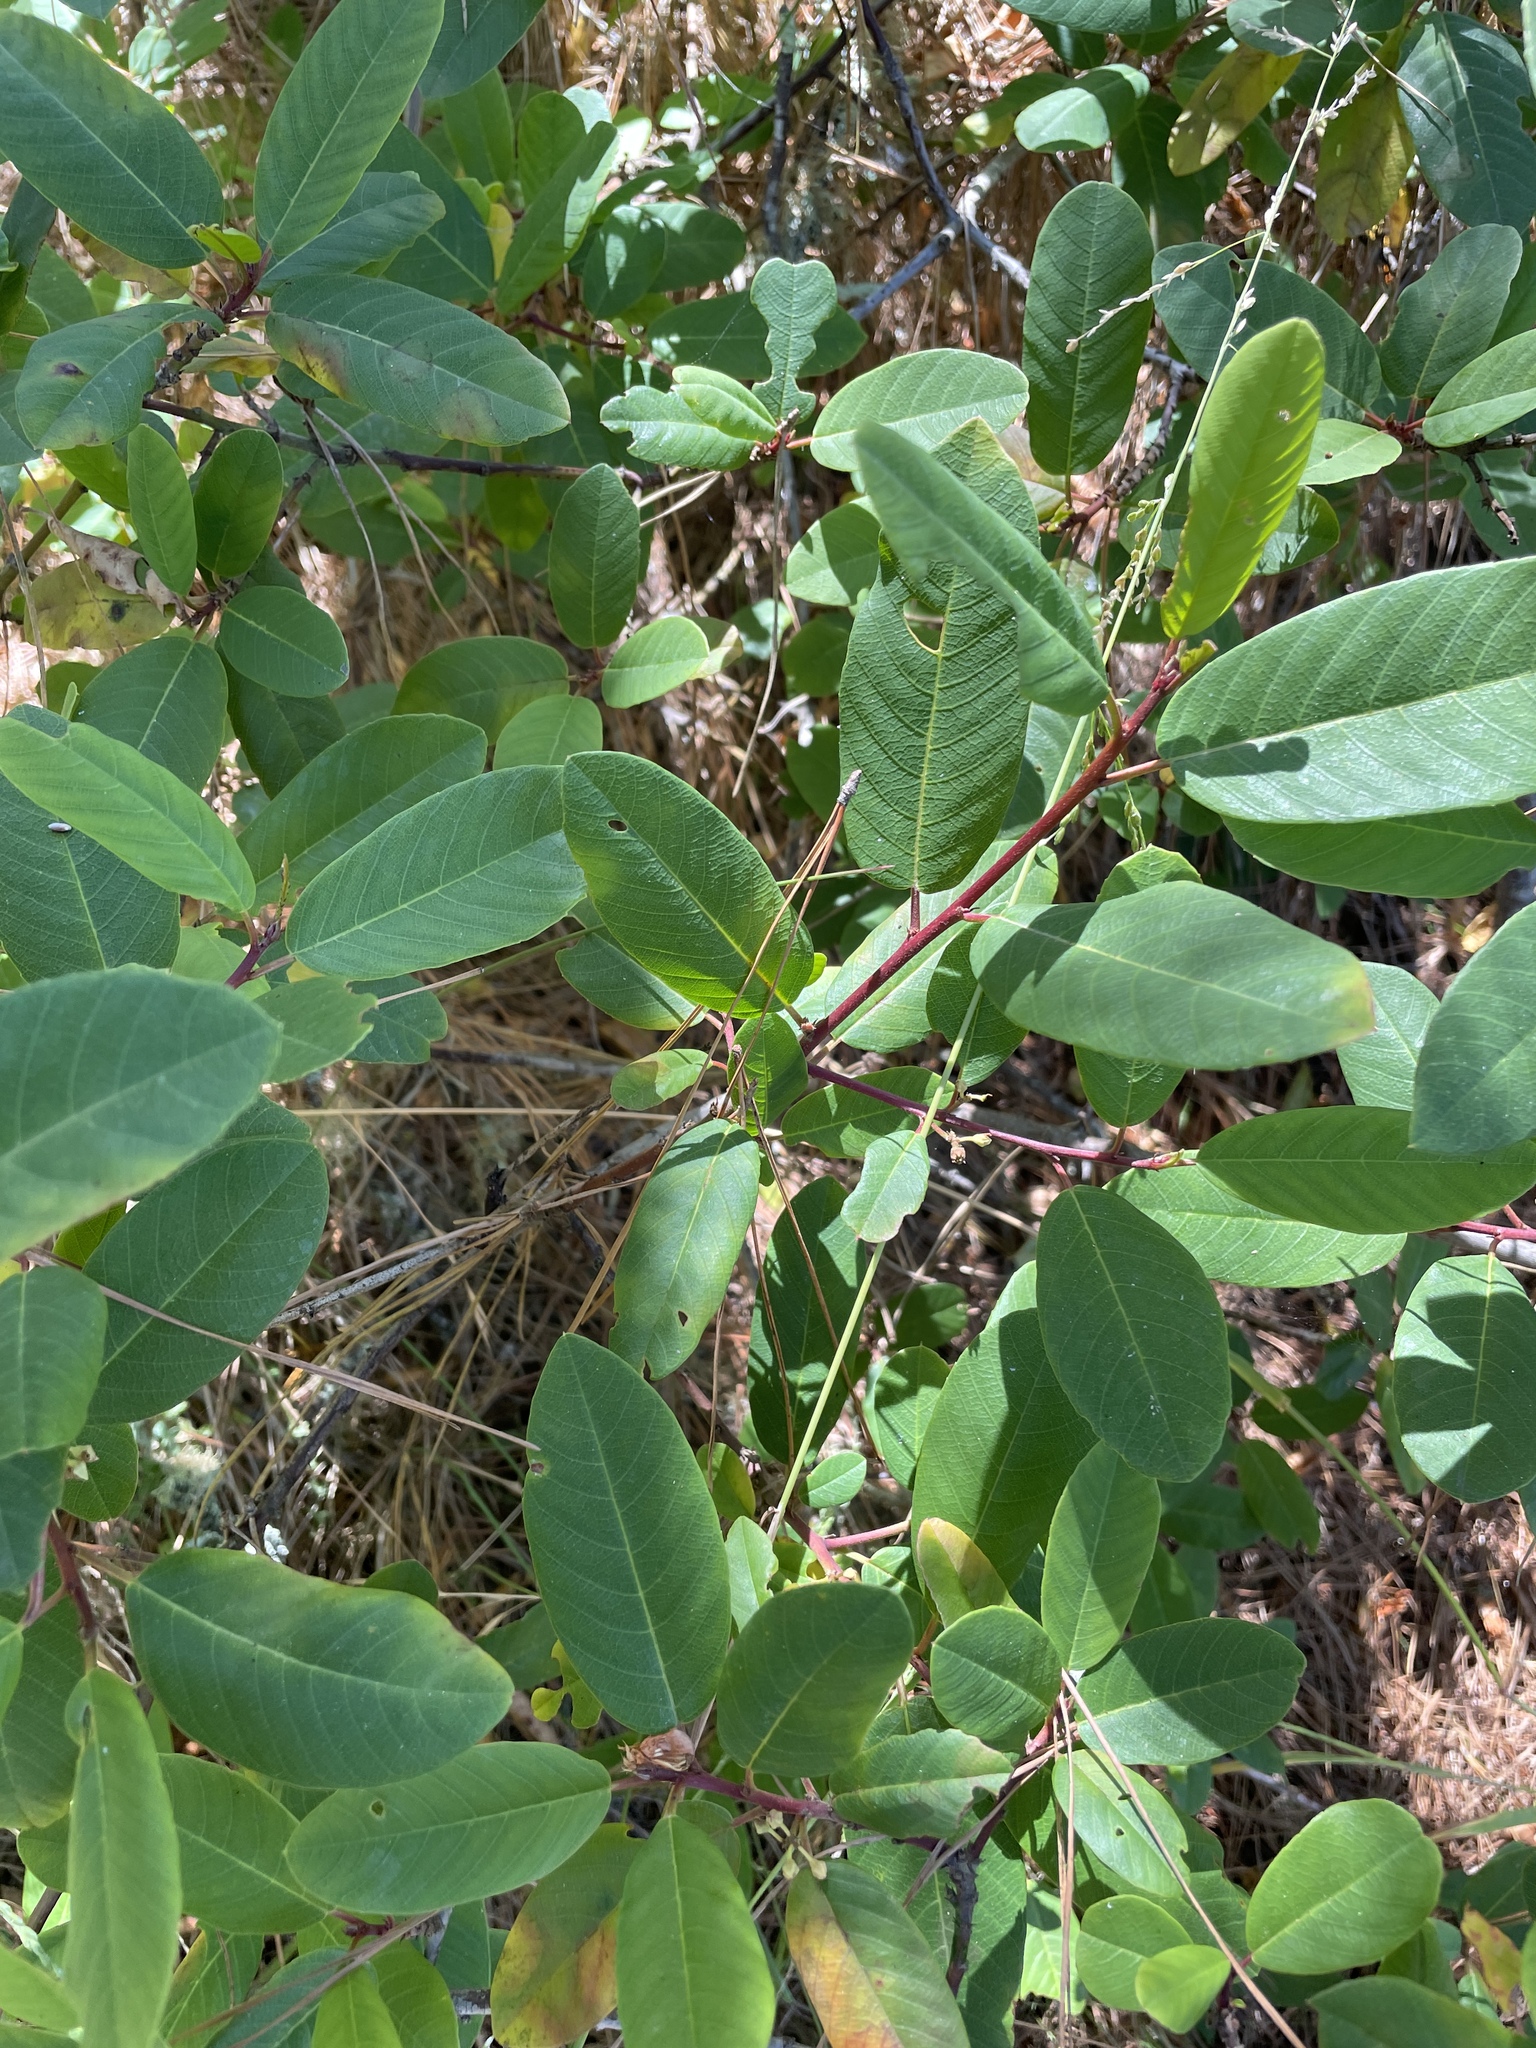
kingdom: Plantae
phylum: Tracheophyta
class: Magnoliopsida
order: Rosales
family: Rhamnaceae
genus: Frangula
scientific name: Frangula californica
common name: California buckthorn
